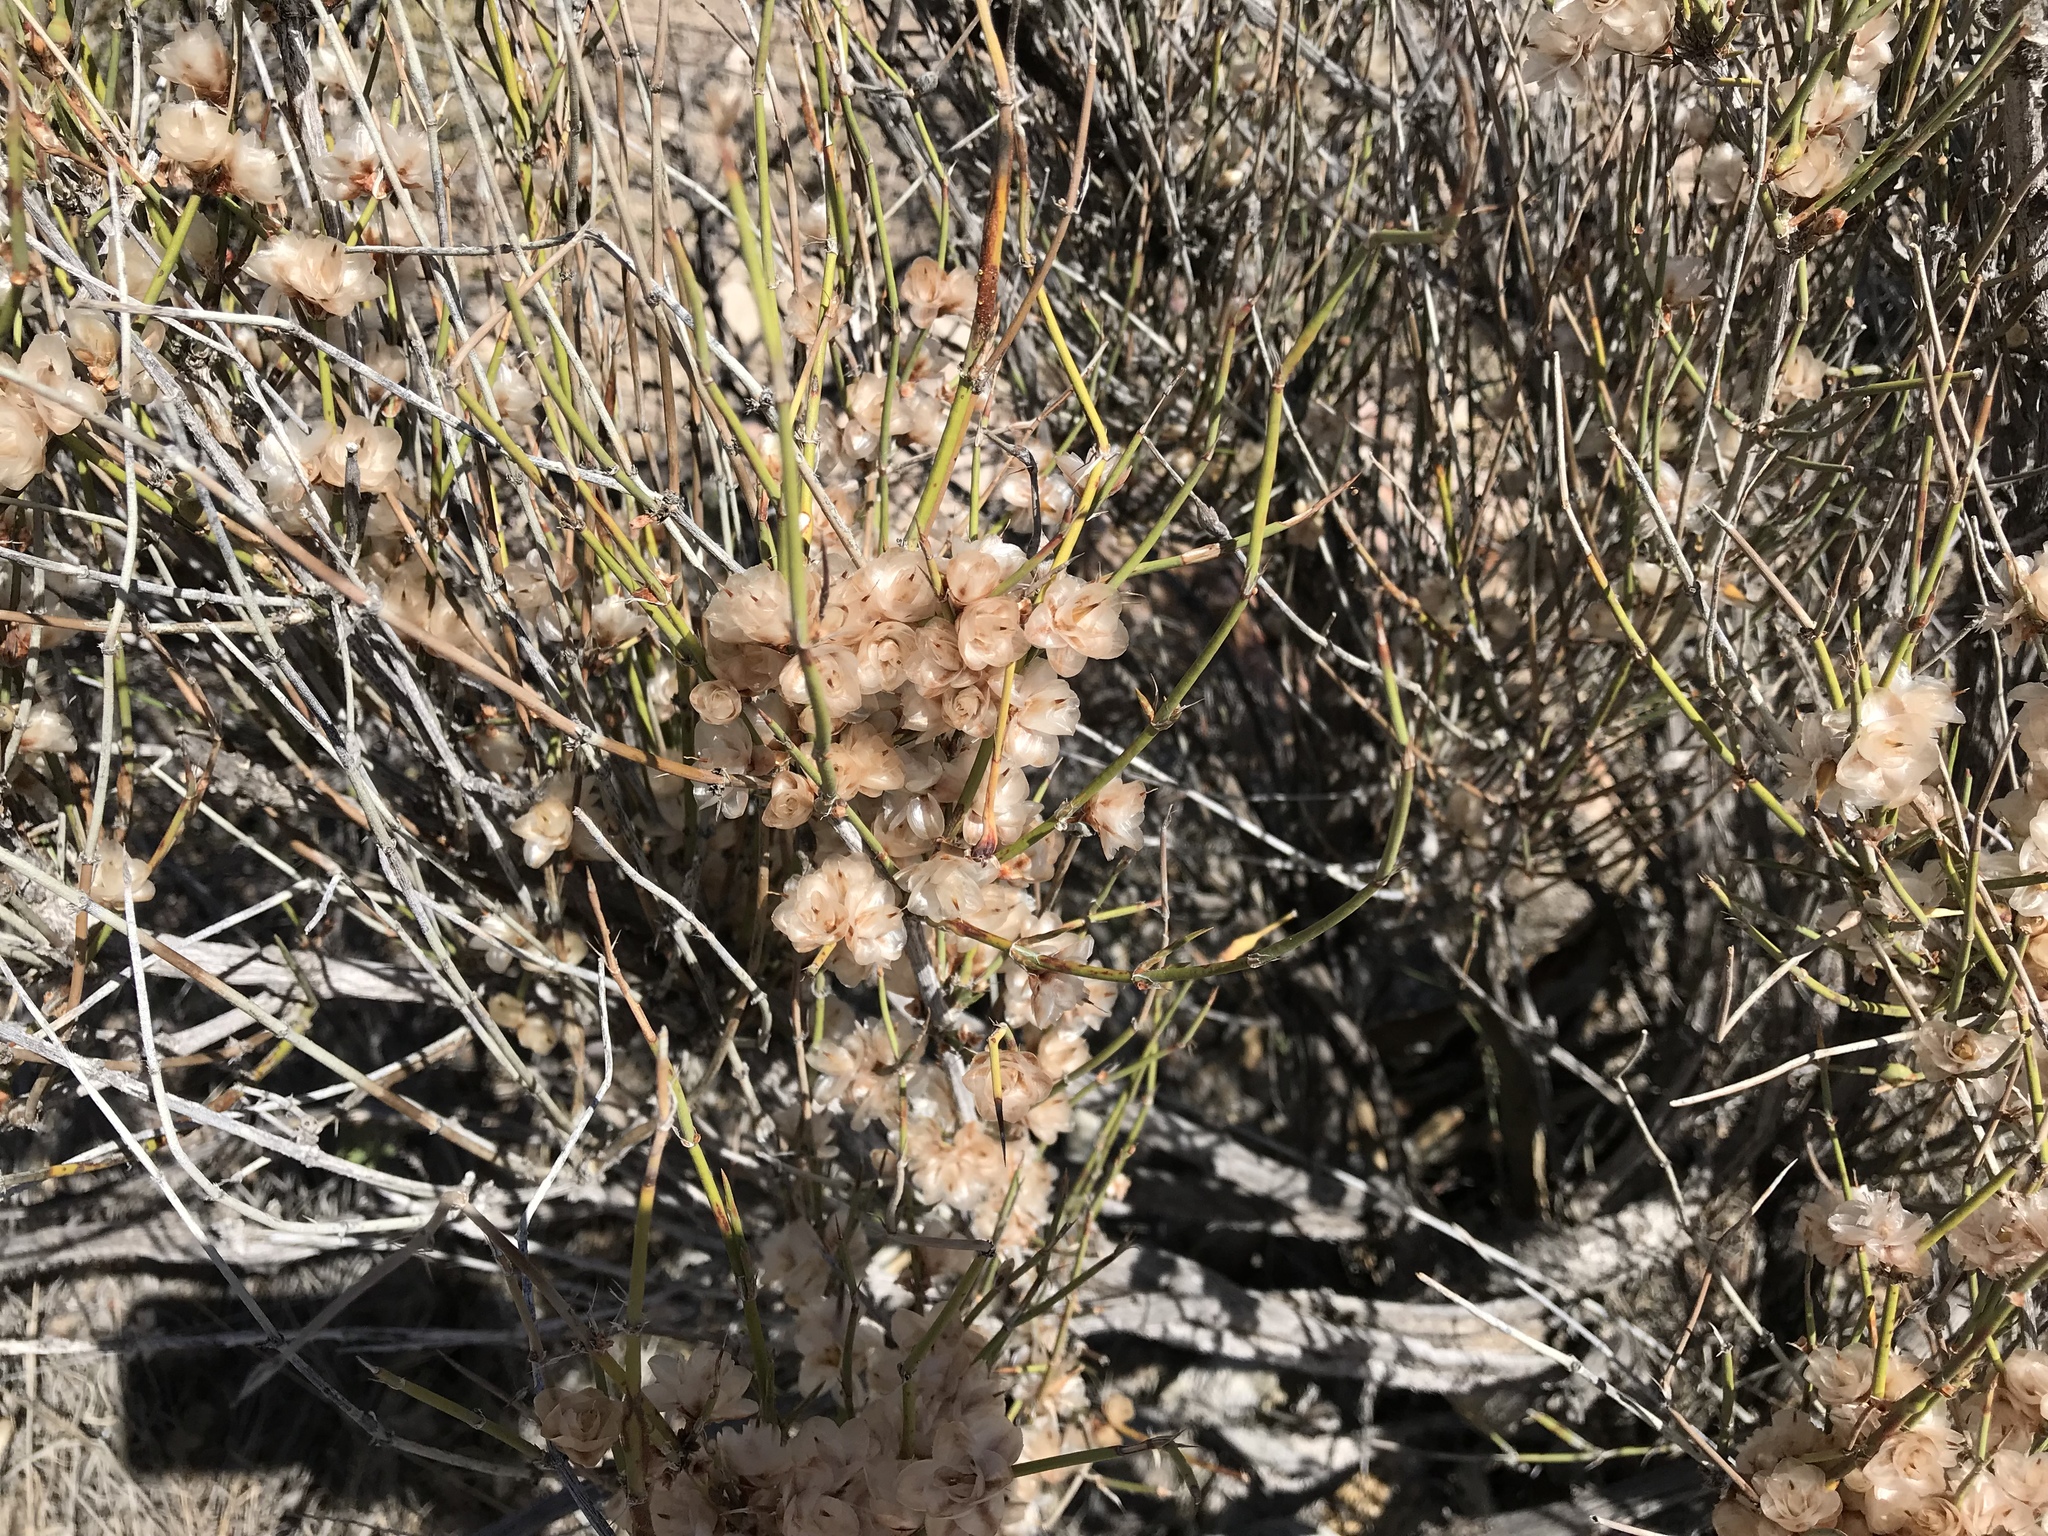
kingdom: Plantae
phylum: Tracheophyta
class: Gnetopsida
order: Ephedrales
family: Ephedraceae
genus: Ephedra
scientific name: Ephedra trifurca
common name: Mexican-tea
